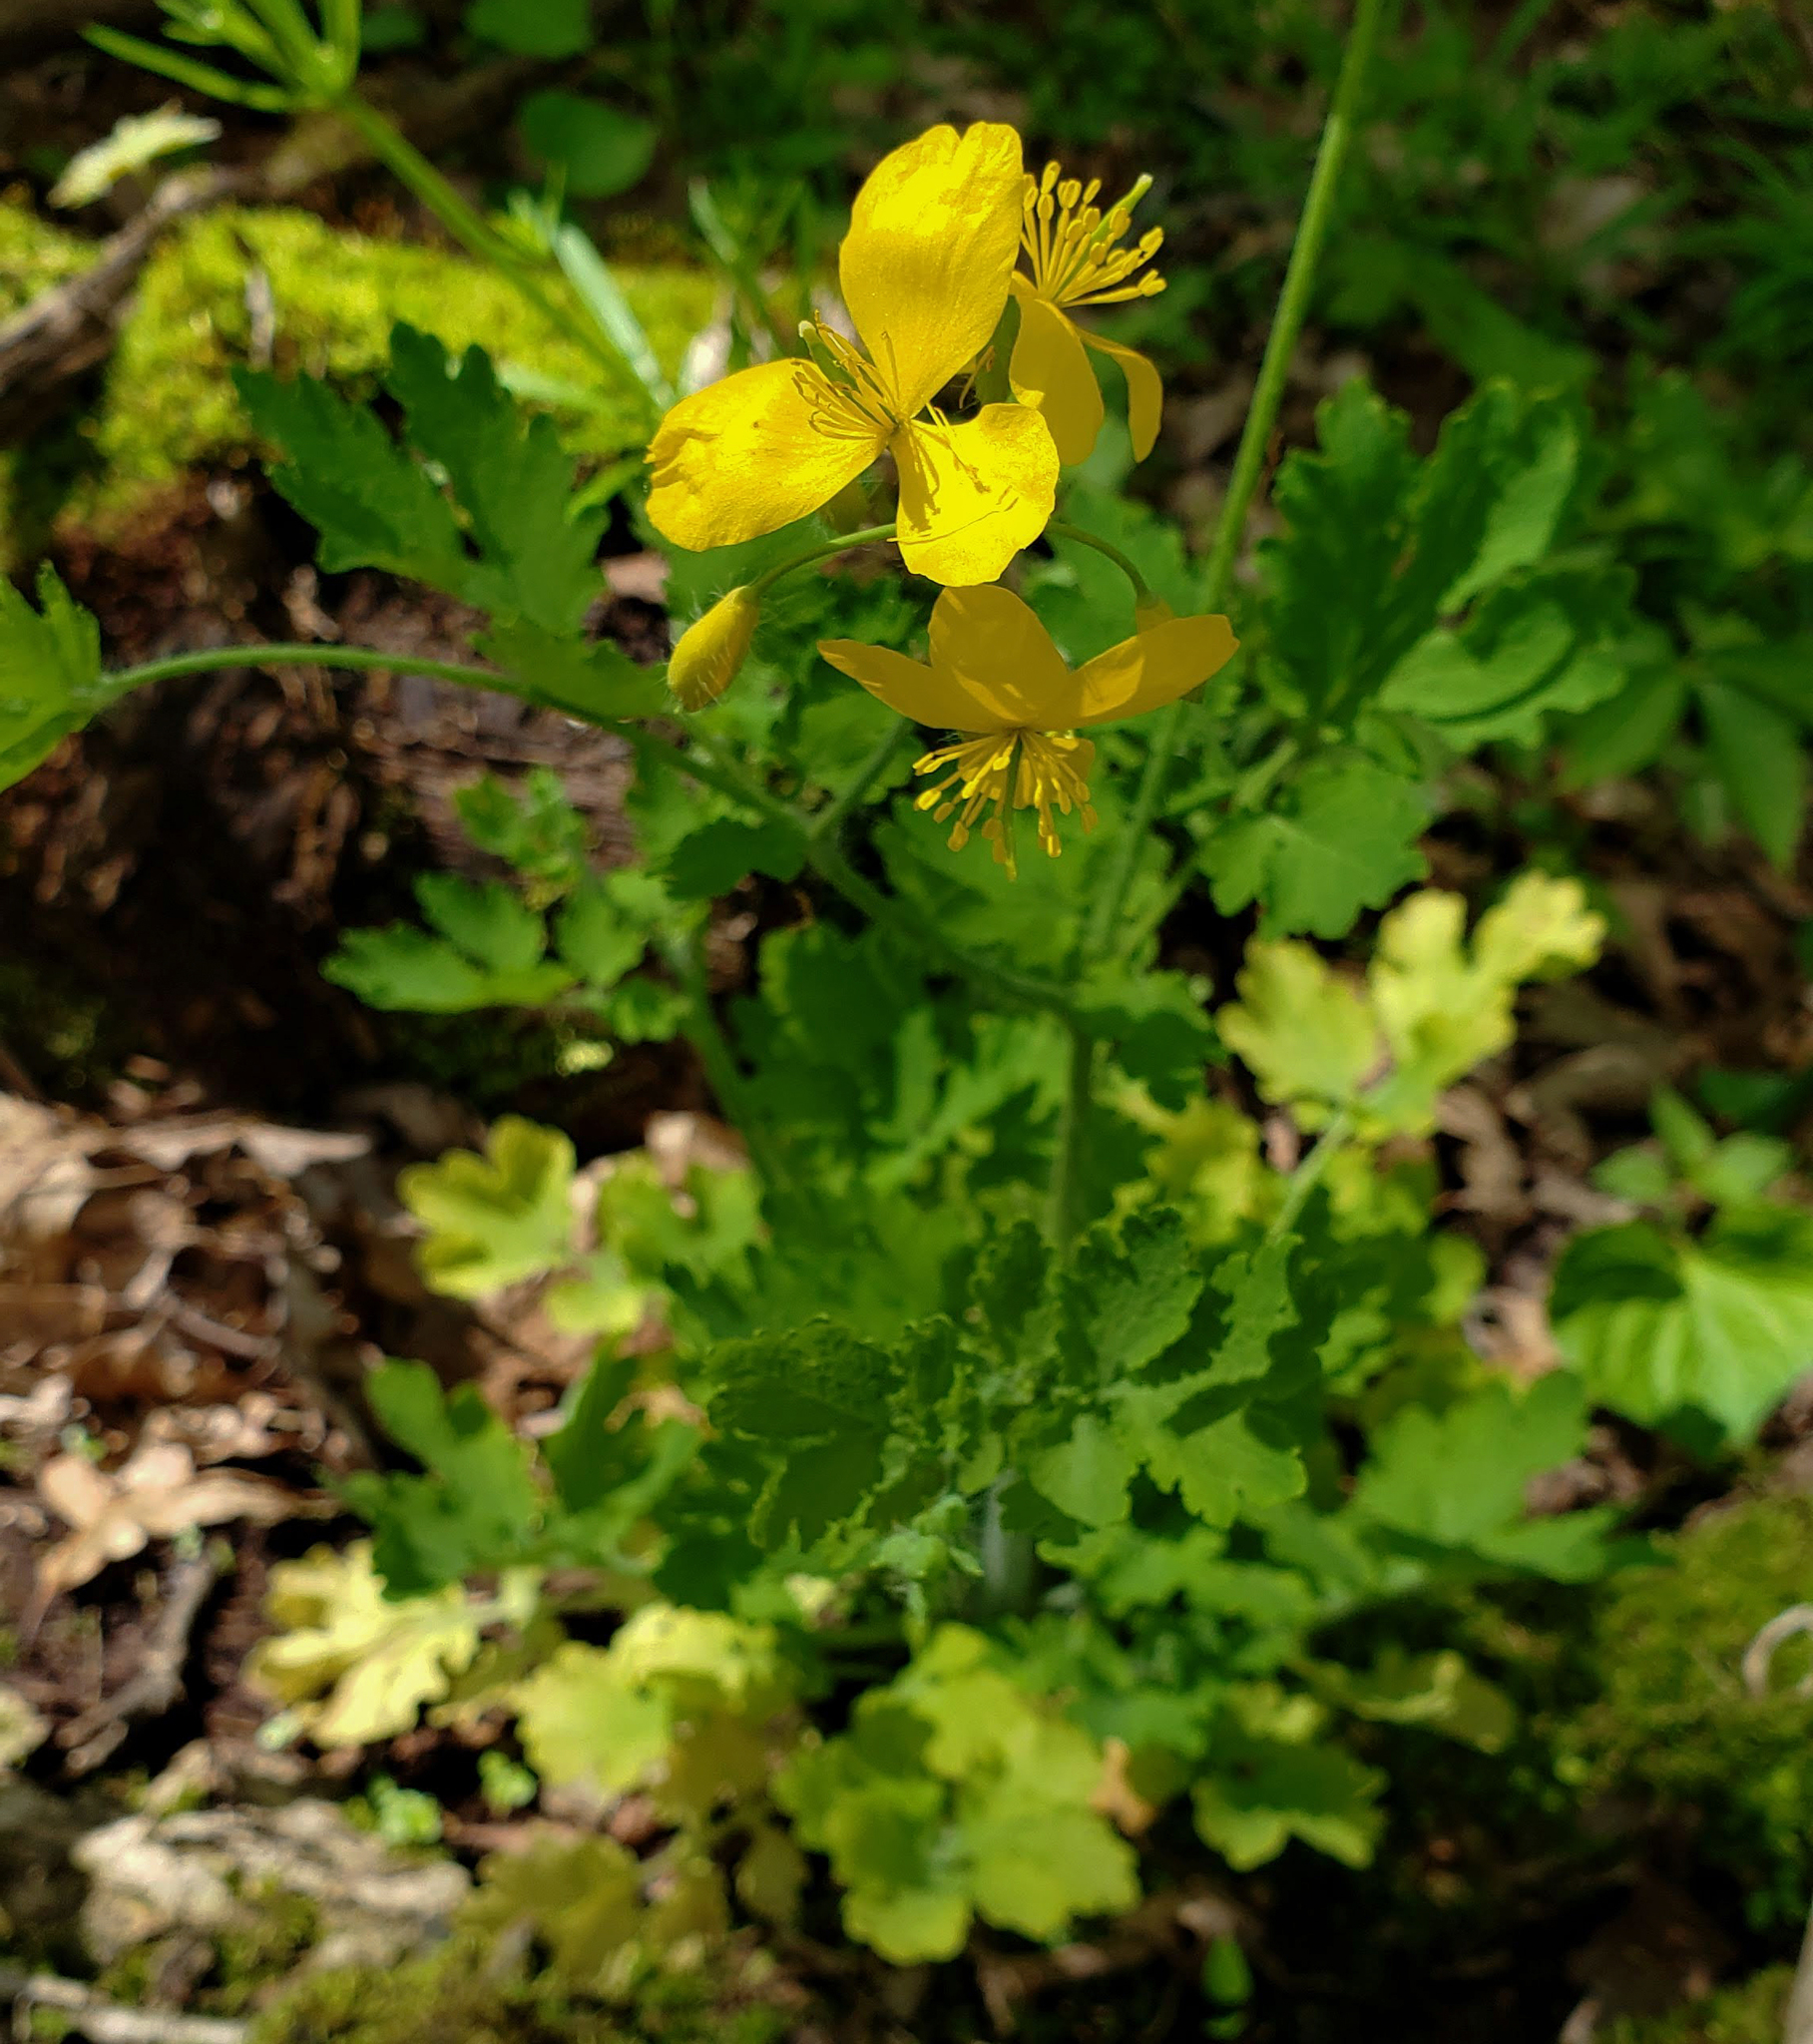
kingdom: Plantae
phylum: Tracheophyta
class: Magnoliopsida
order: Ranunculales
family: Papaveraceae
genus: Chelidonium
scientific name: Chelidonium majus
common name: Greater celandine
